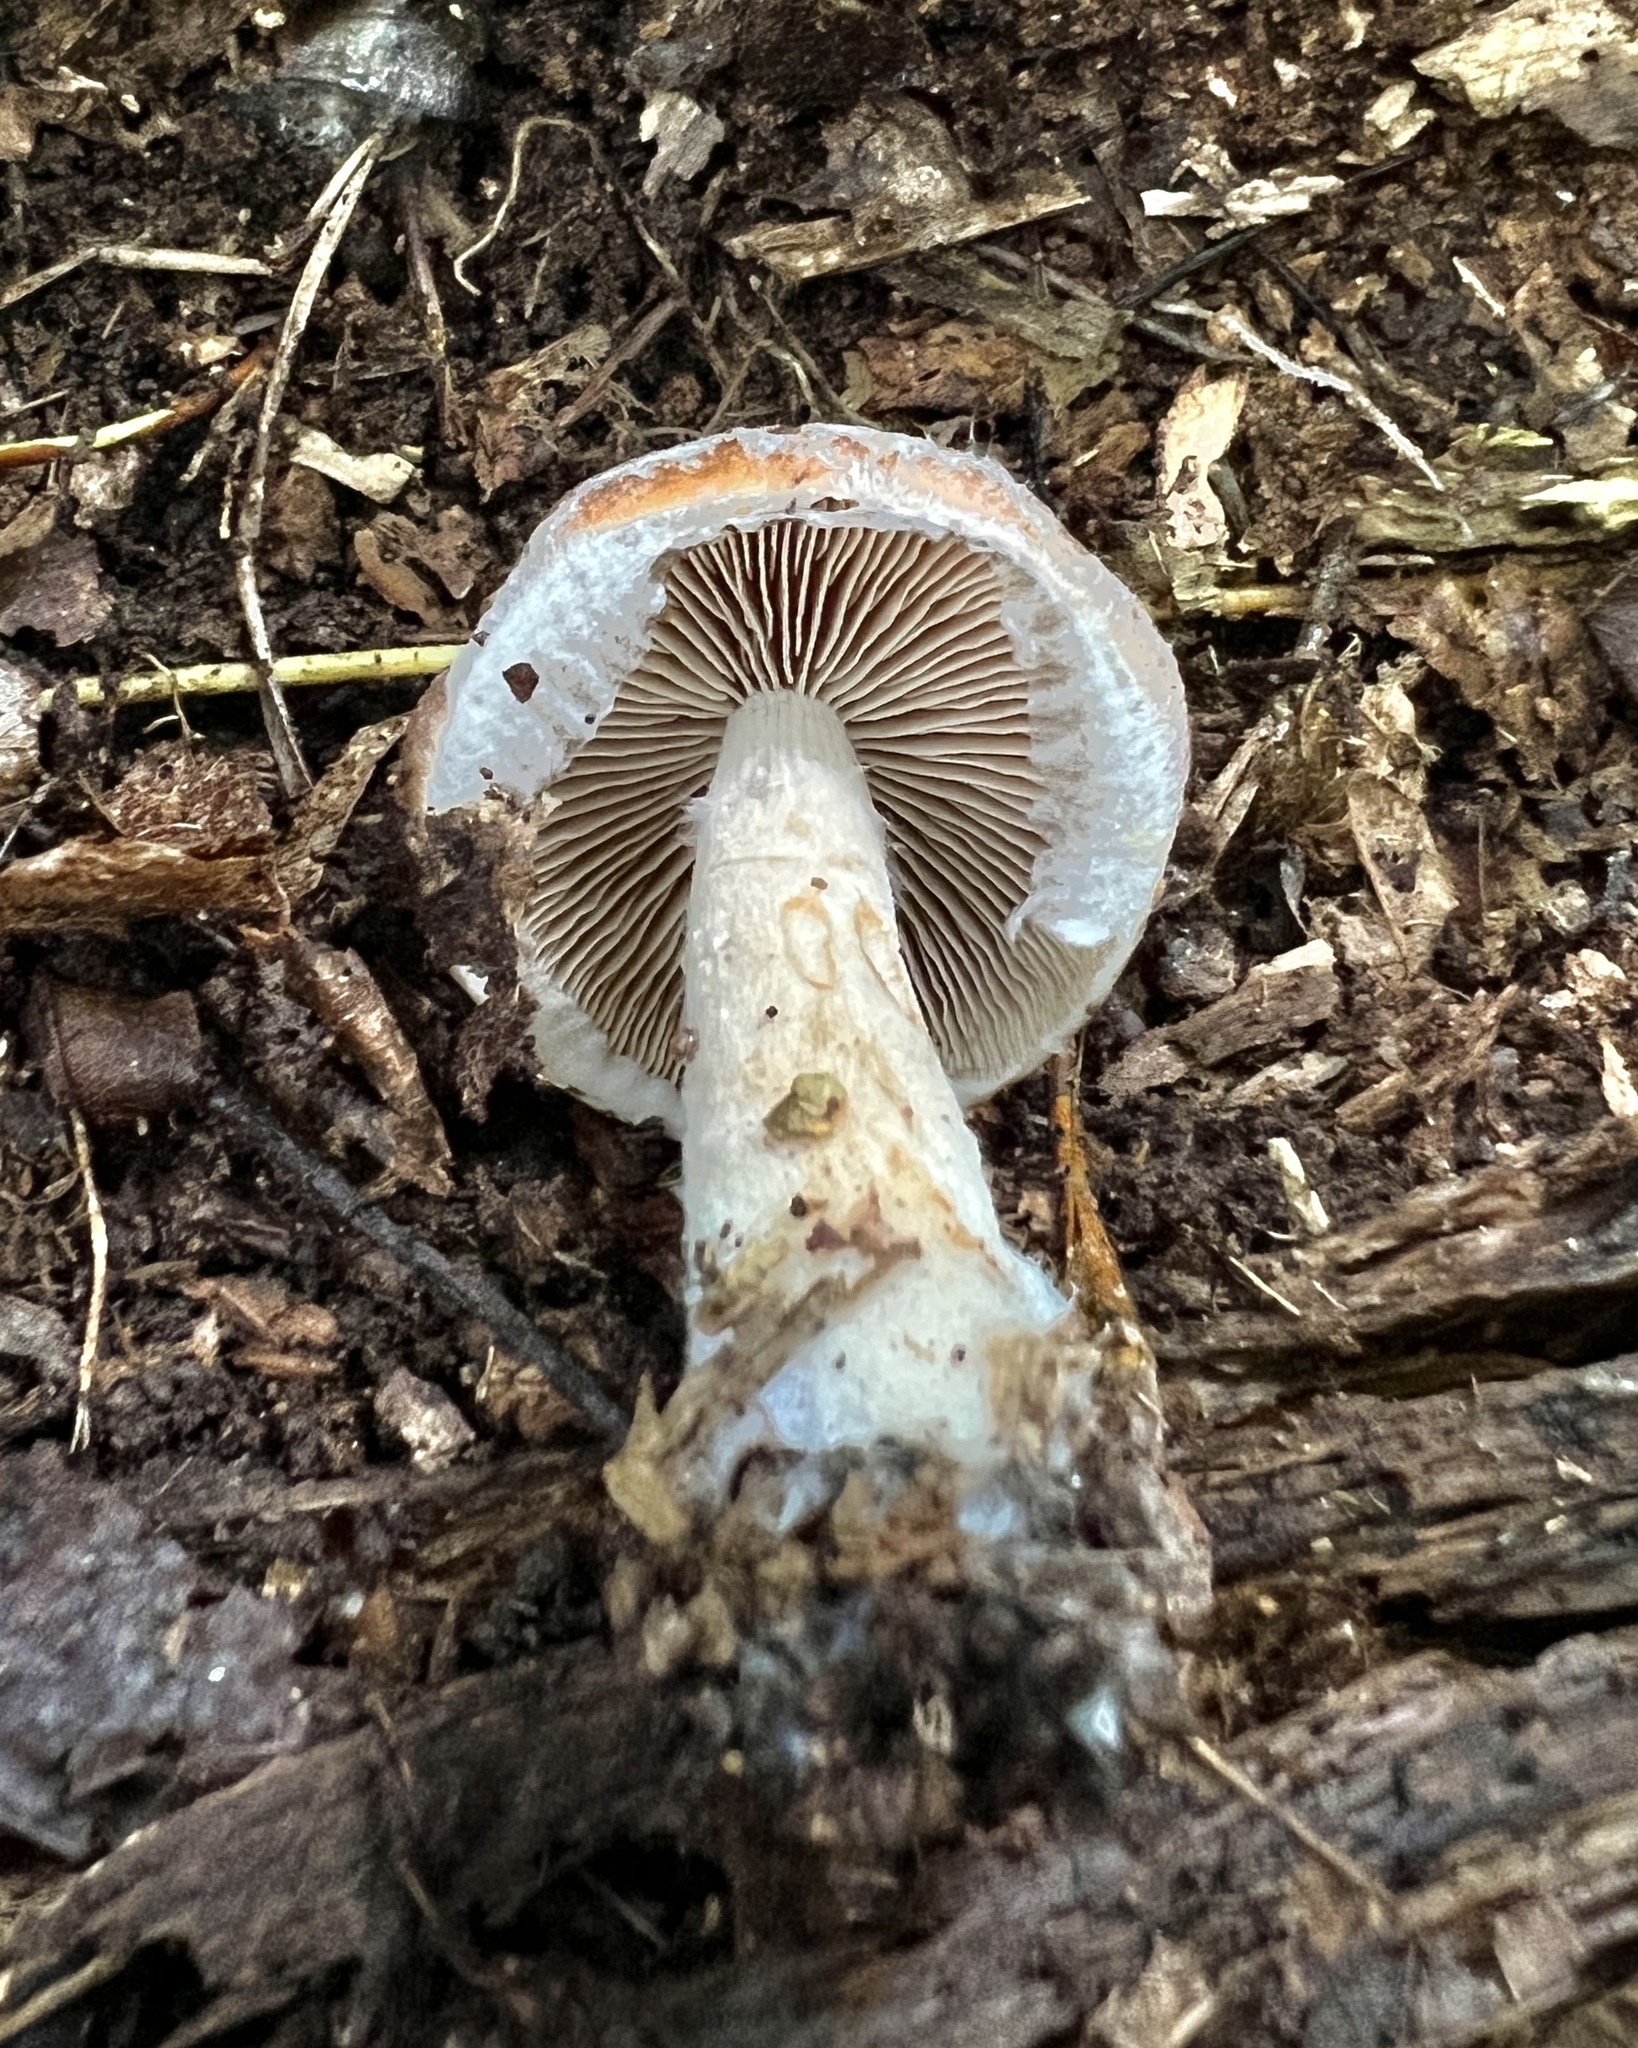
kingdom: Fungi
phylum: Basidiomycota
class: Agaricomycetes
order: Agaricales
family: Psathyrellaceae
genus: Typhrasa
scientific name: Typhrasa gossypina
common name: Wrinkled psathyrella
